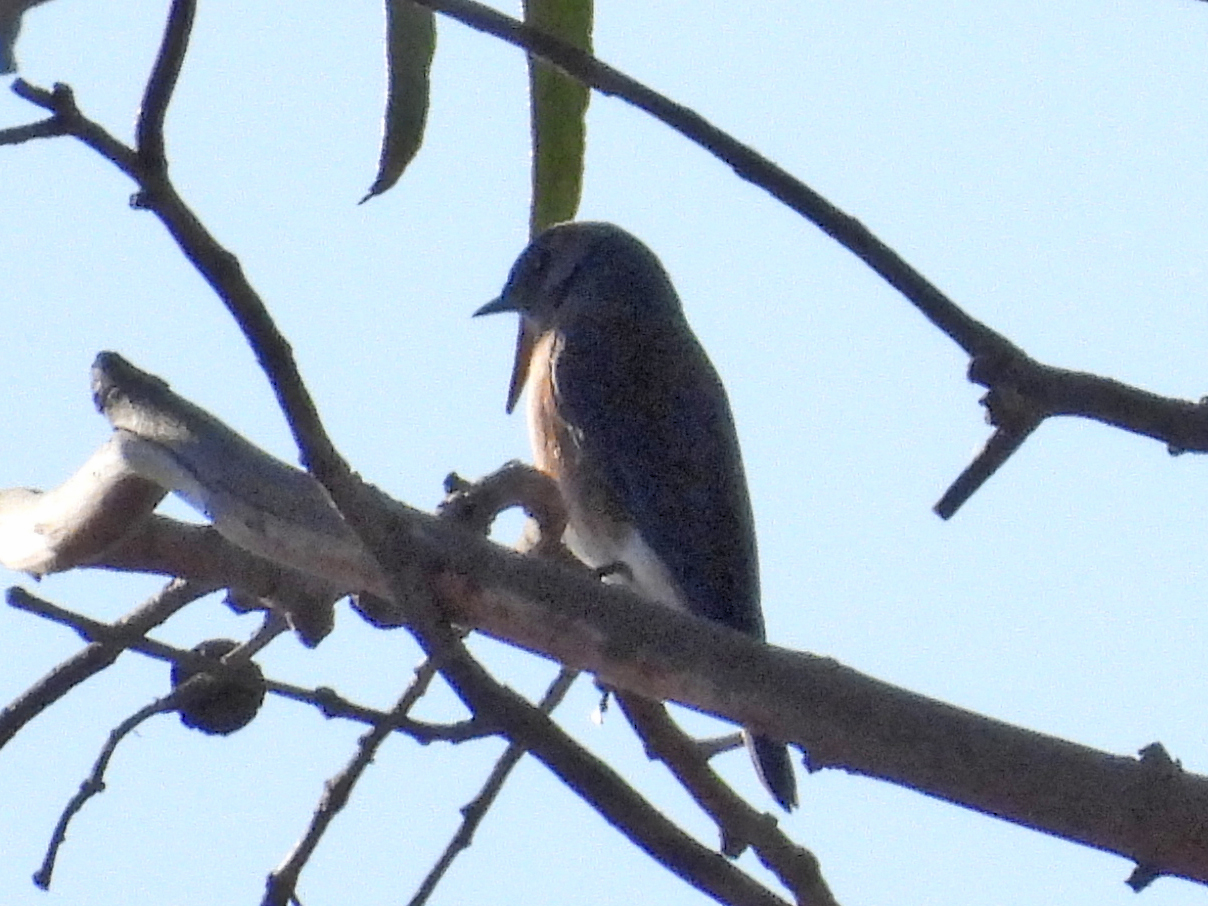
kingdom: Animalia
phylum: Chordata
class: Aves
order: Passeriformes
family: Turdidae
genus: Sialia
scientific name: Sialia mexicana
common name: Western bluebird
